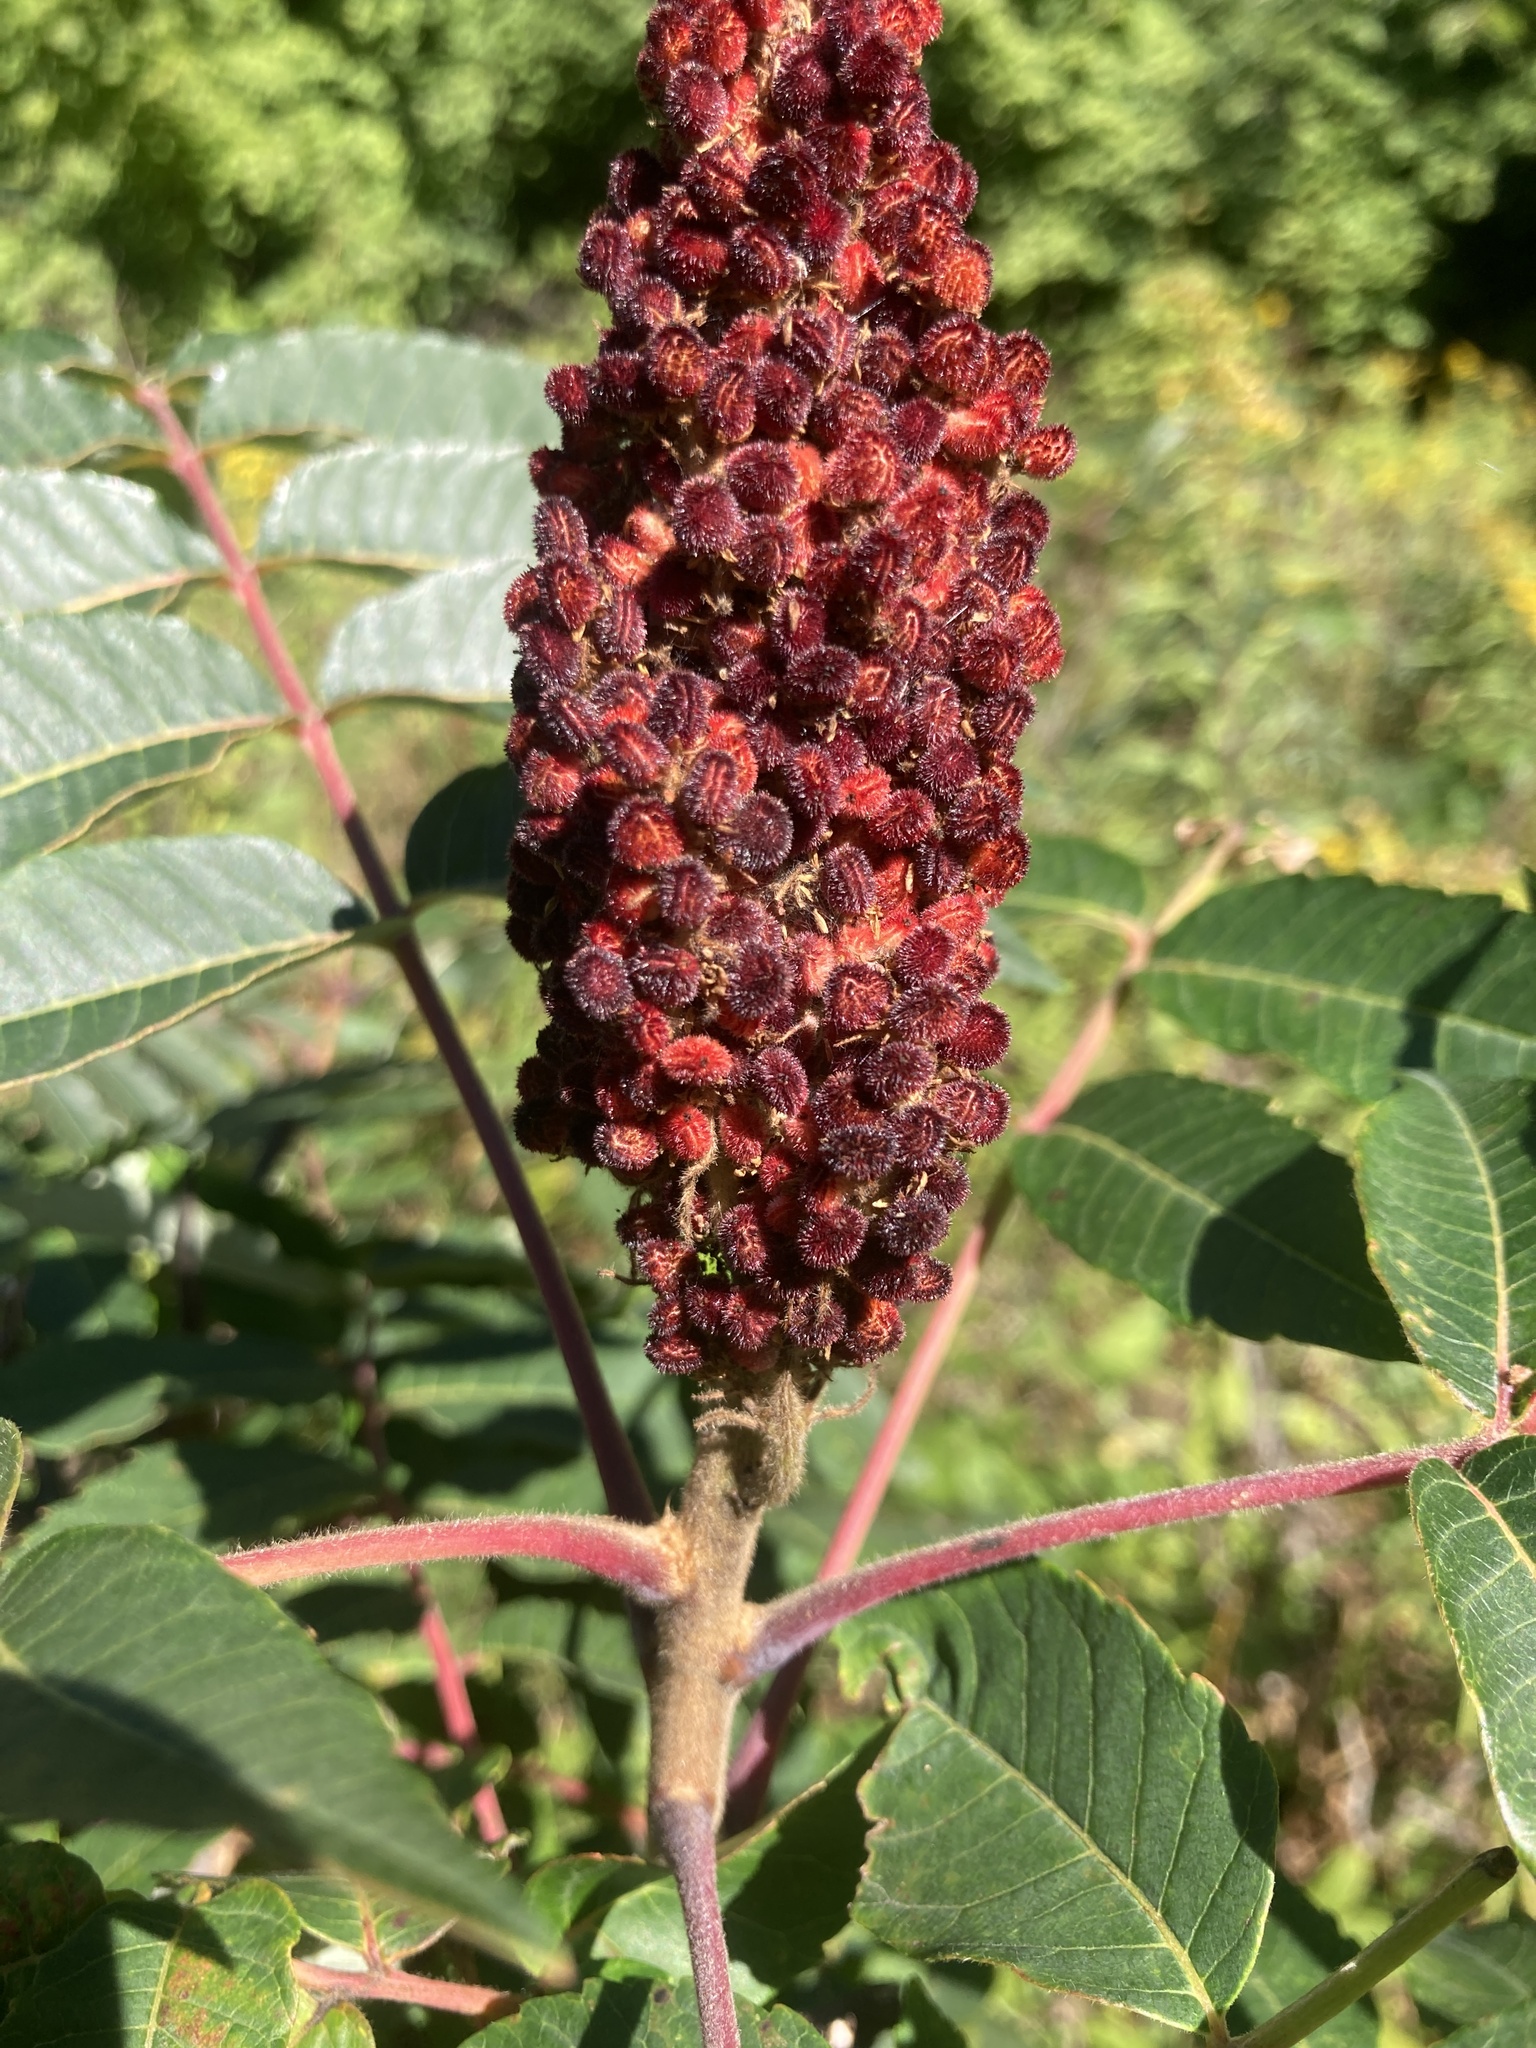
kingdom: Plantae
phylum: Tracheophyta
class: Magnoliopsida
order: Sapindales
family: Anacardiaceae
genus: Rhus
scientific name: Rhus typhina
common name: Staghorn sumac
